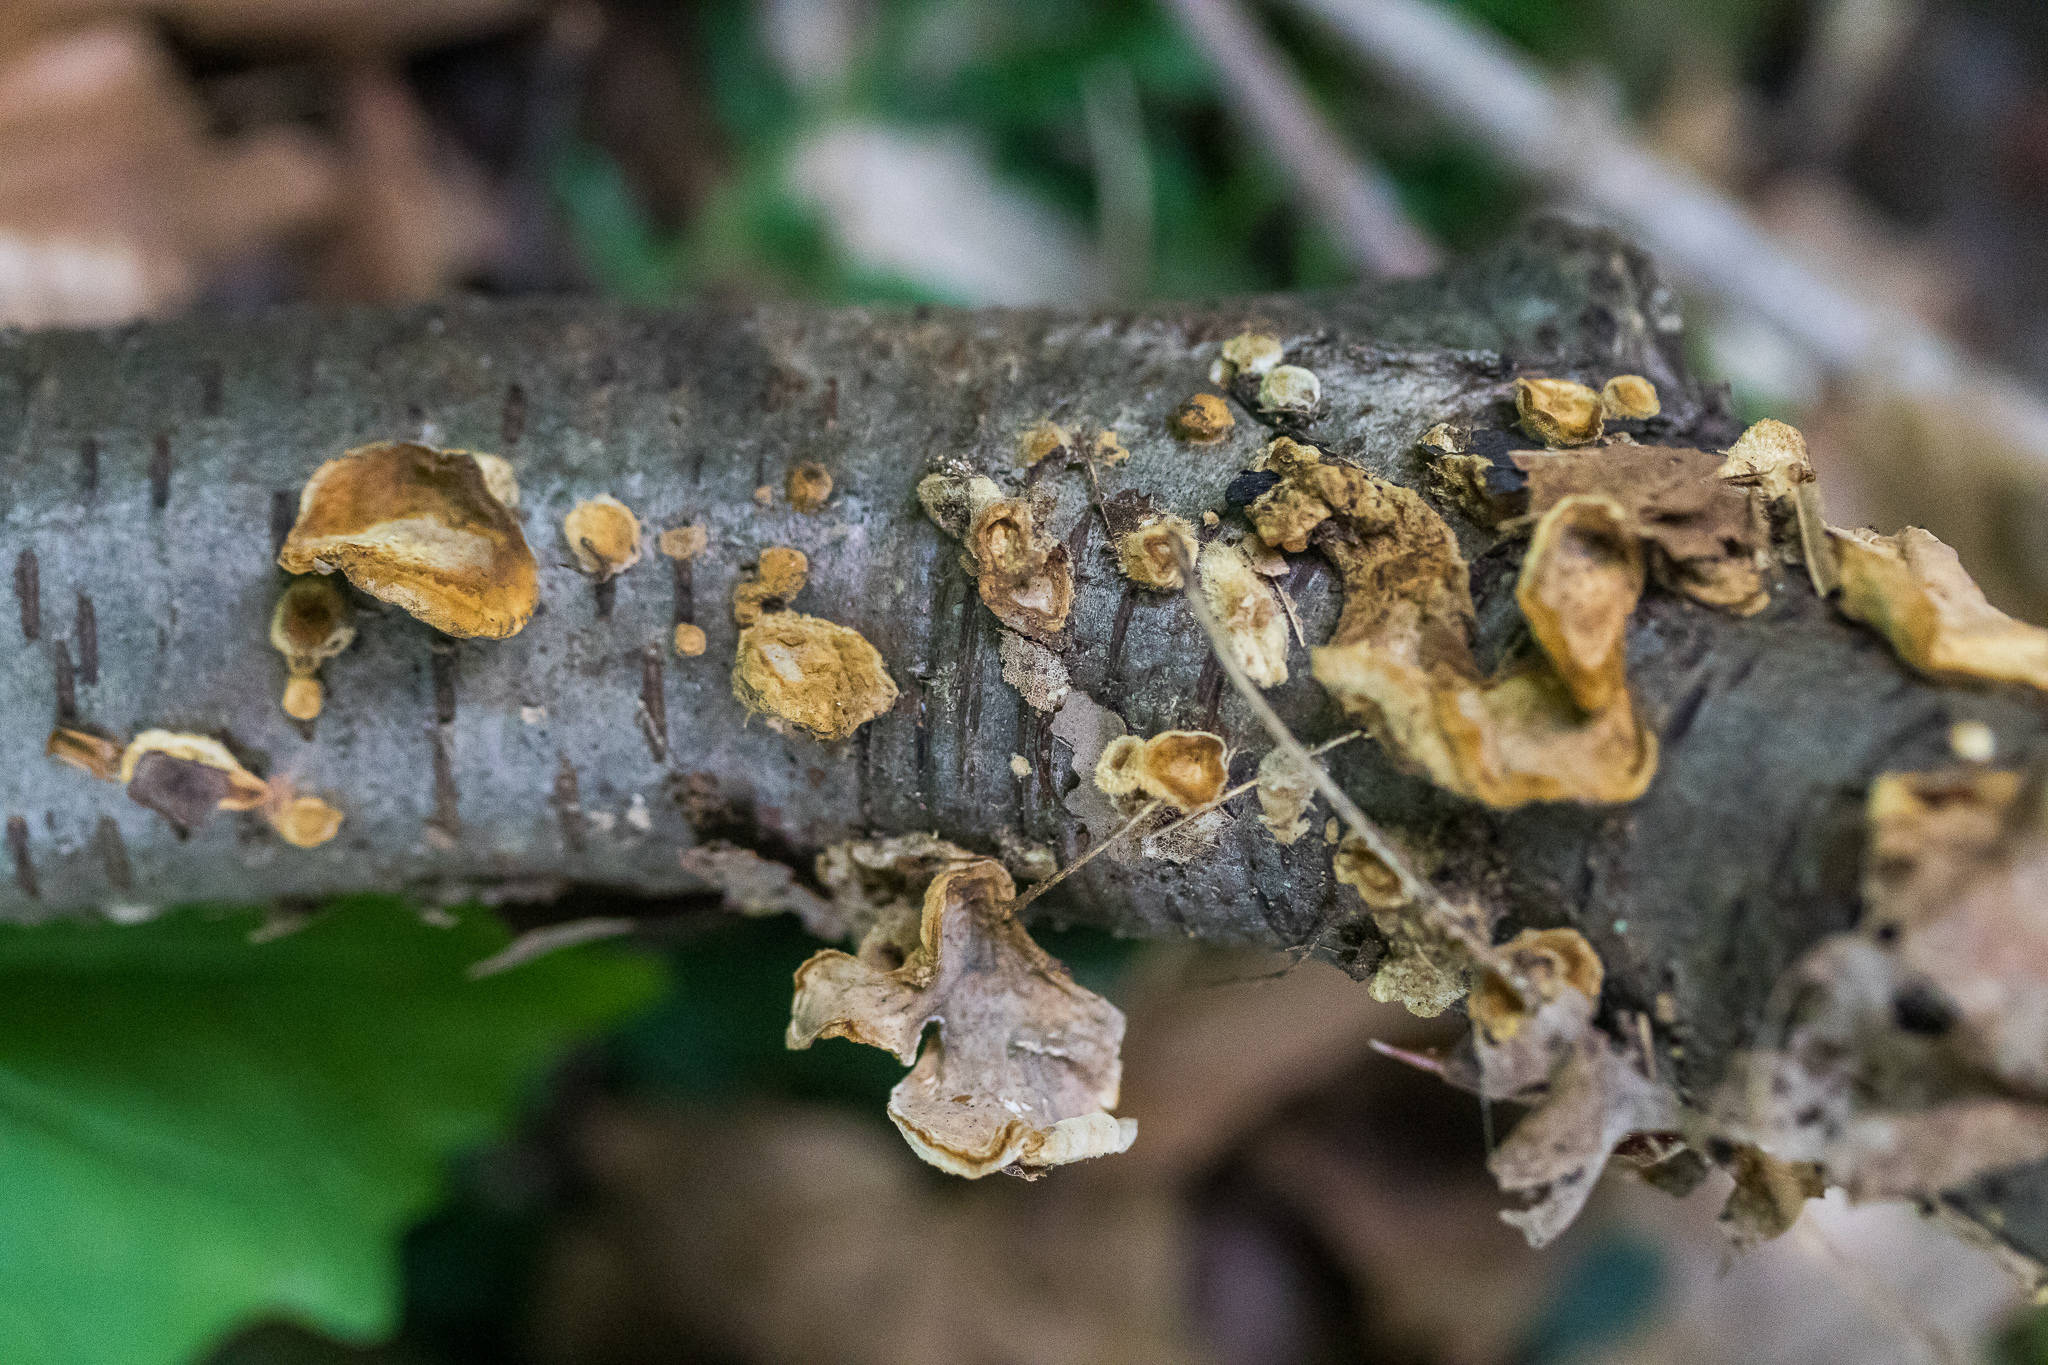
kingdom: Fungi
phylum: Basidiomycota
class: Agaricomycetes
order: Russulales
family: Stereaceae
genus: Stereum
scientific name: Stereum complicatum
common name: Crowded parchment
